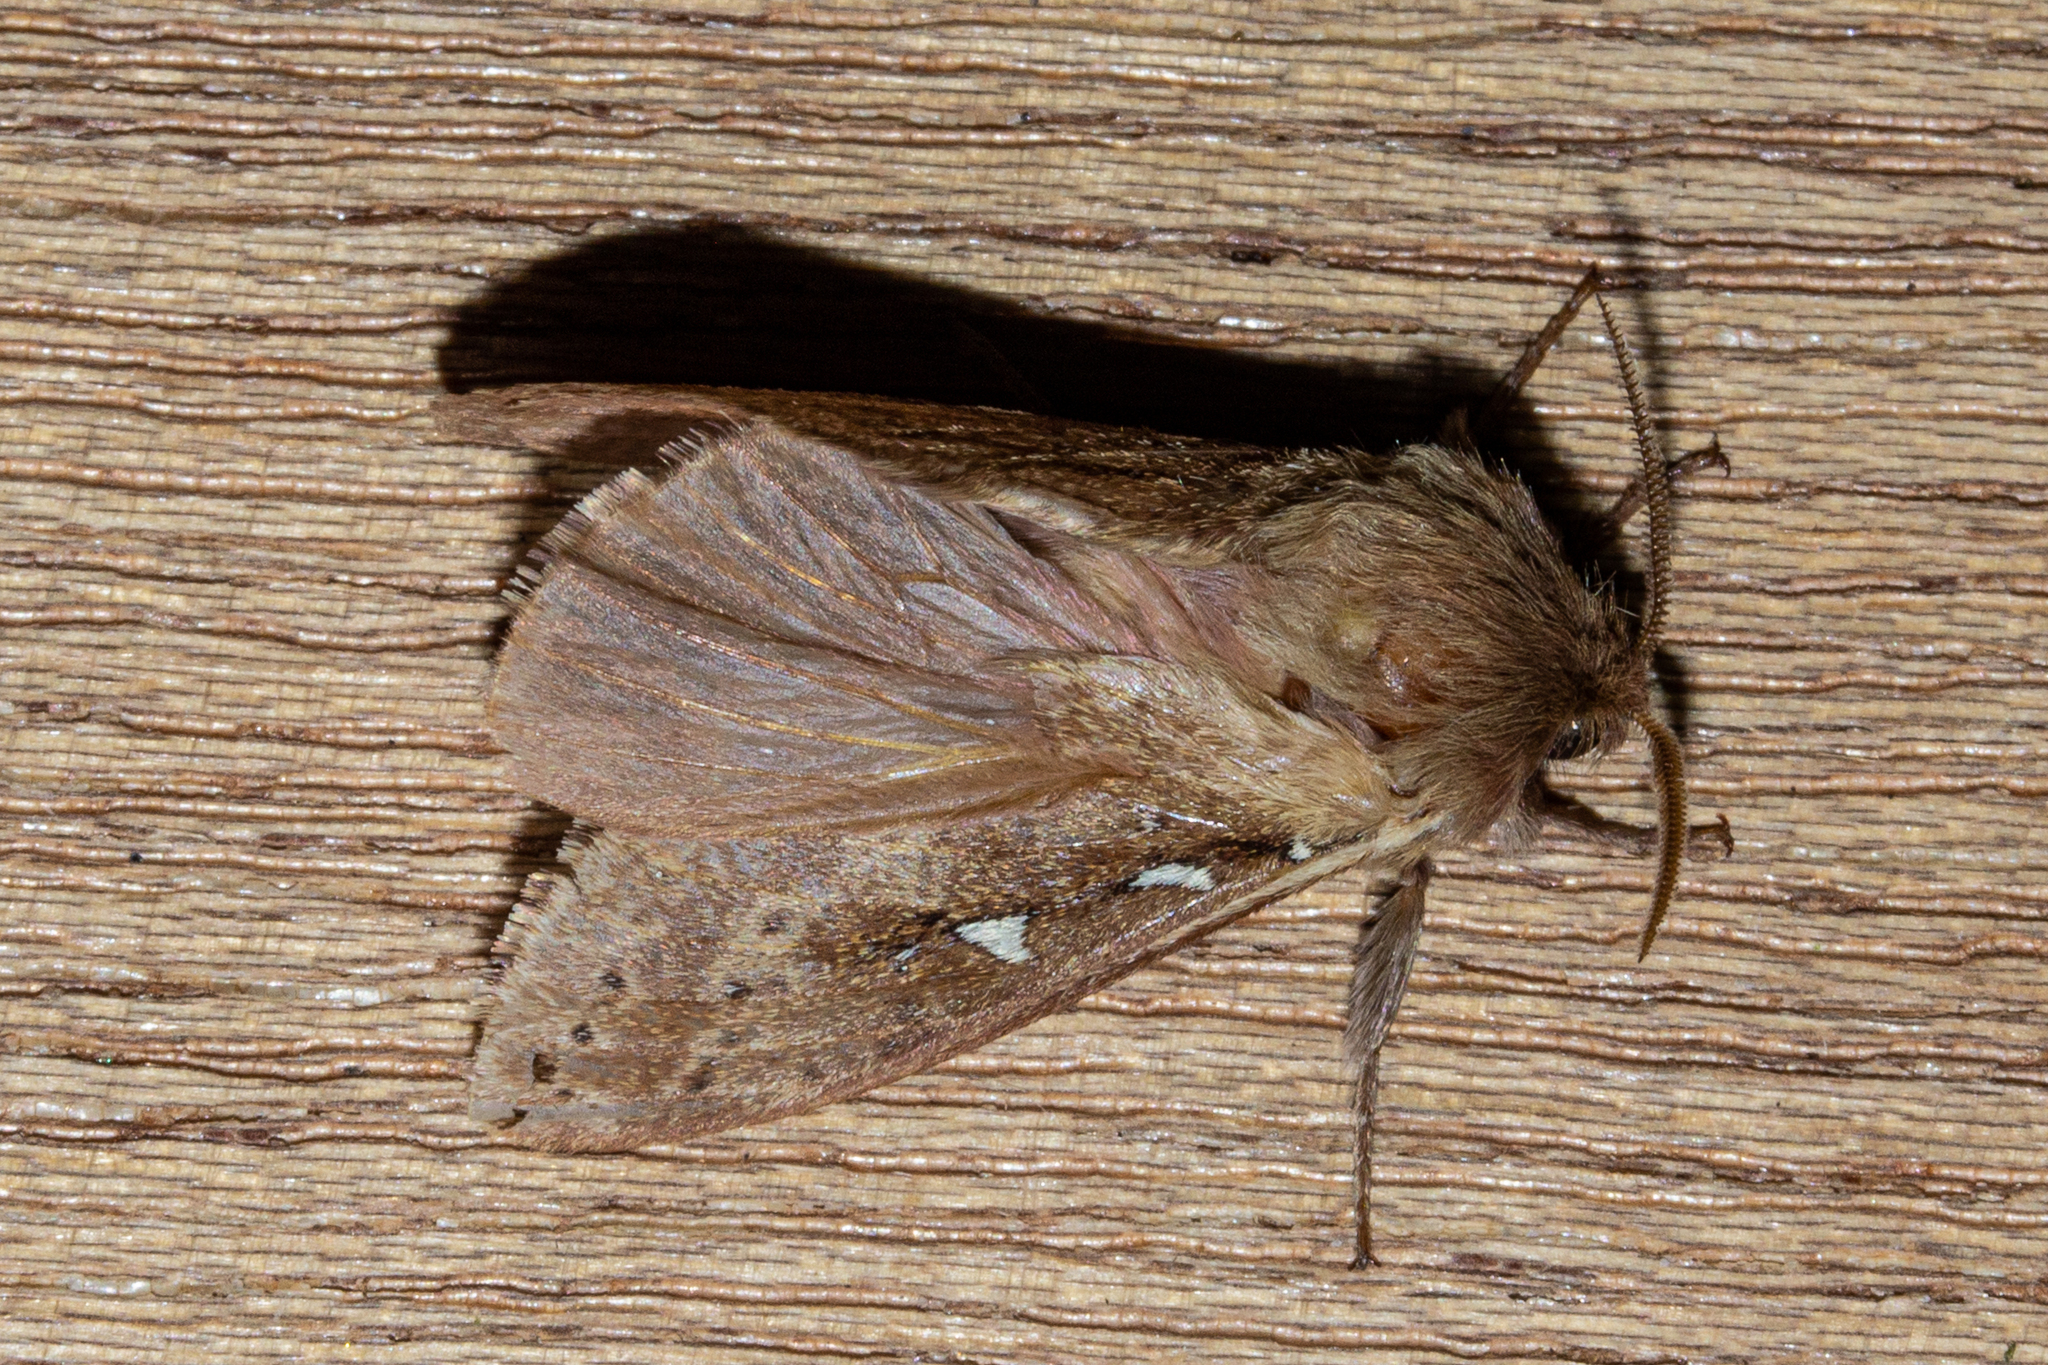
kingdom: Animalia
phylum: Arthropoda
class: Insecta
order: Lepidoptera
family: Hepialidae
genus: Wiseana
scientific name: Wiseana copularis
